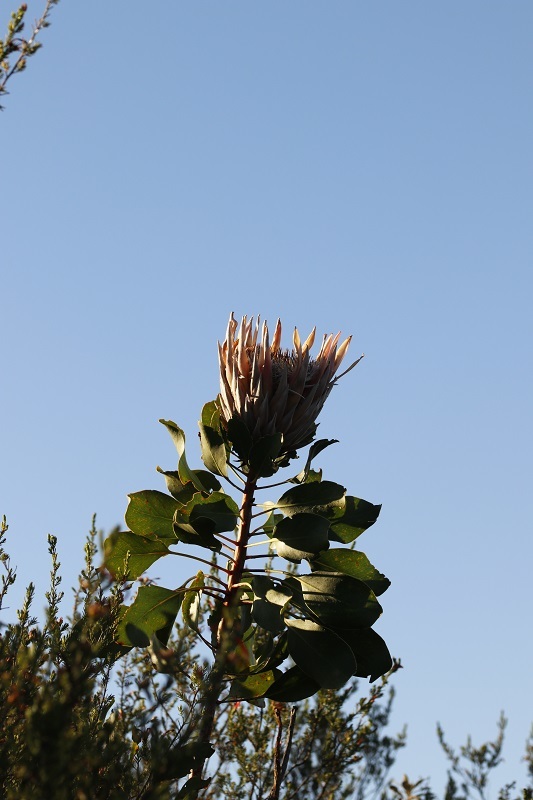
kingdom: Plantae
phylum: Tracheophyta
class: Magnoliopsida
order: Proteales
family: Proteaceae
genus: Protea
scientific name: Protea cynaroides
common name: King protea
